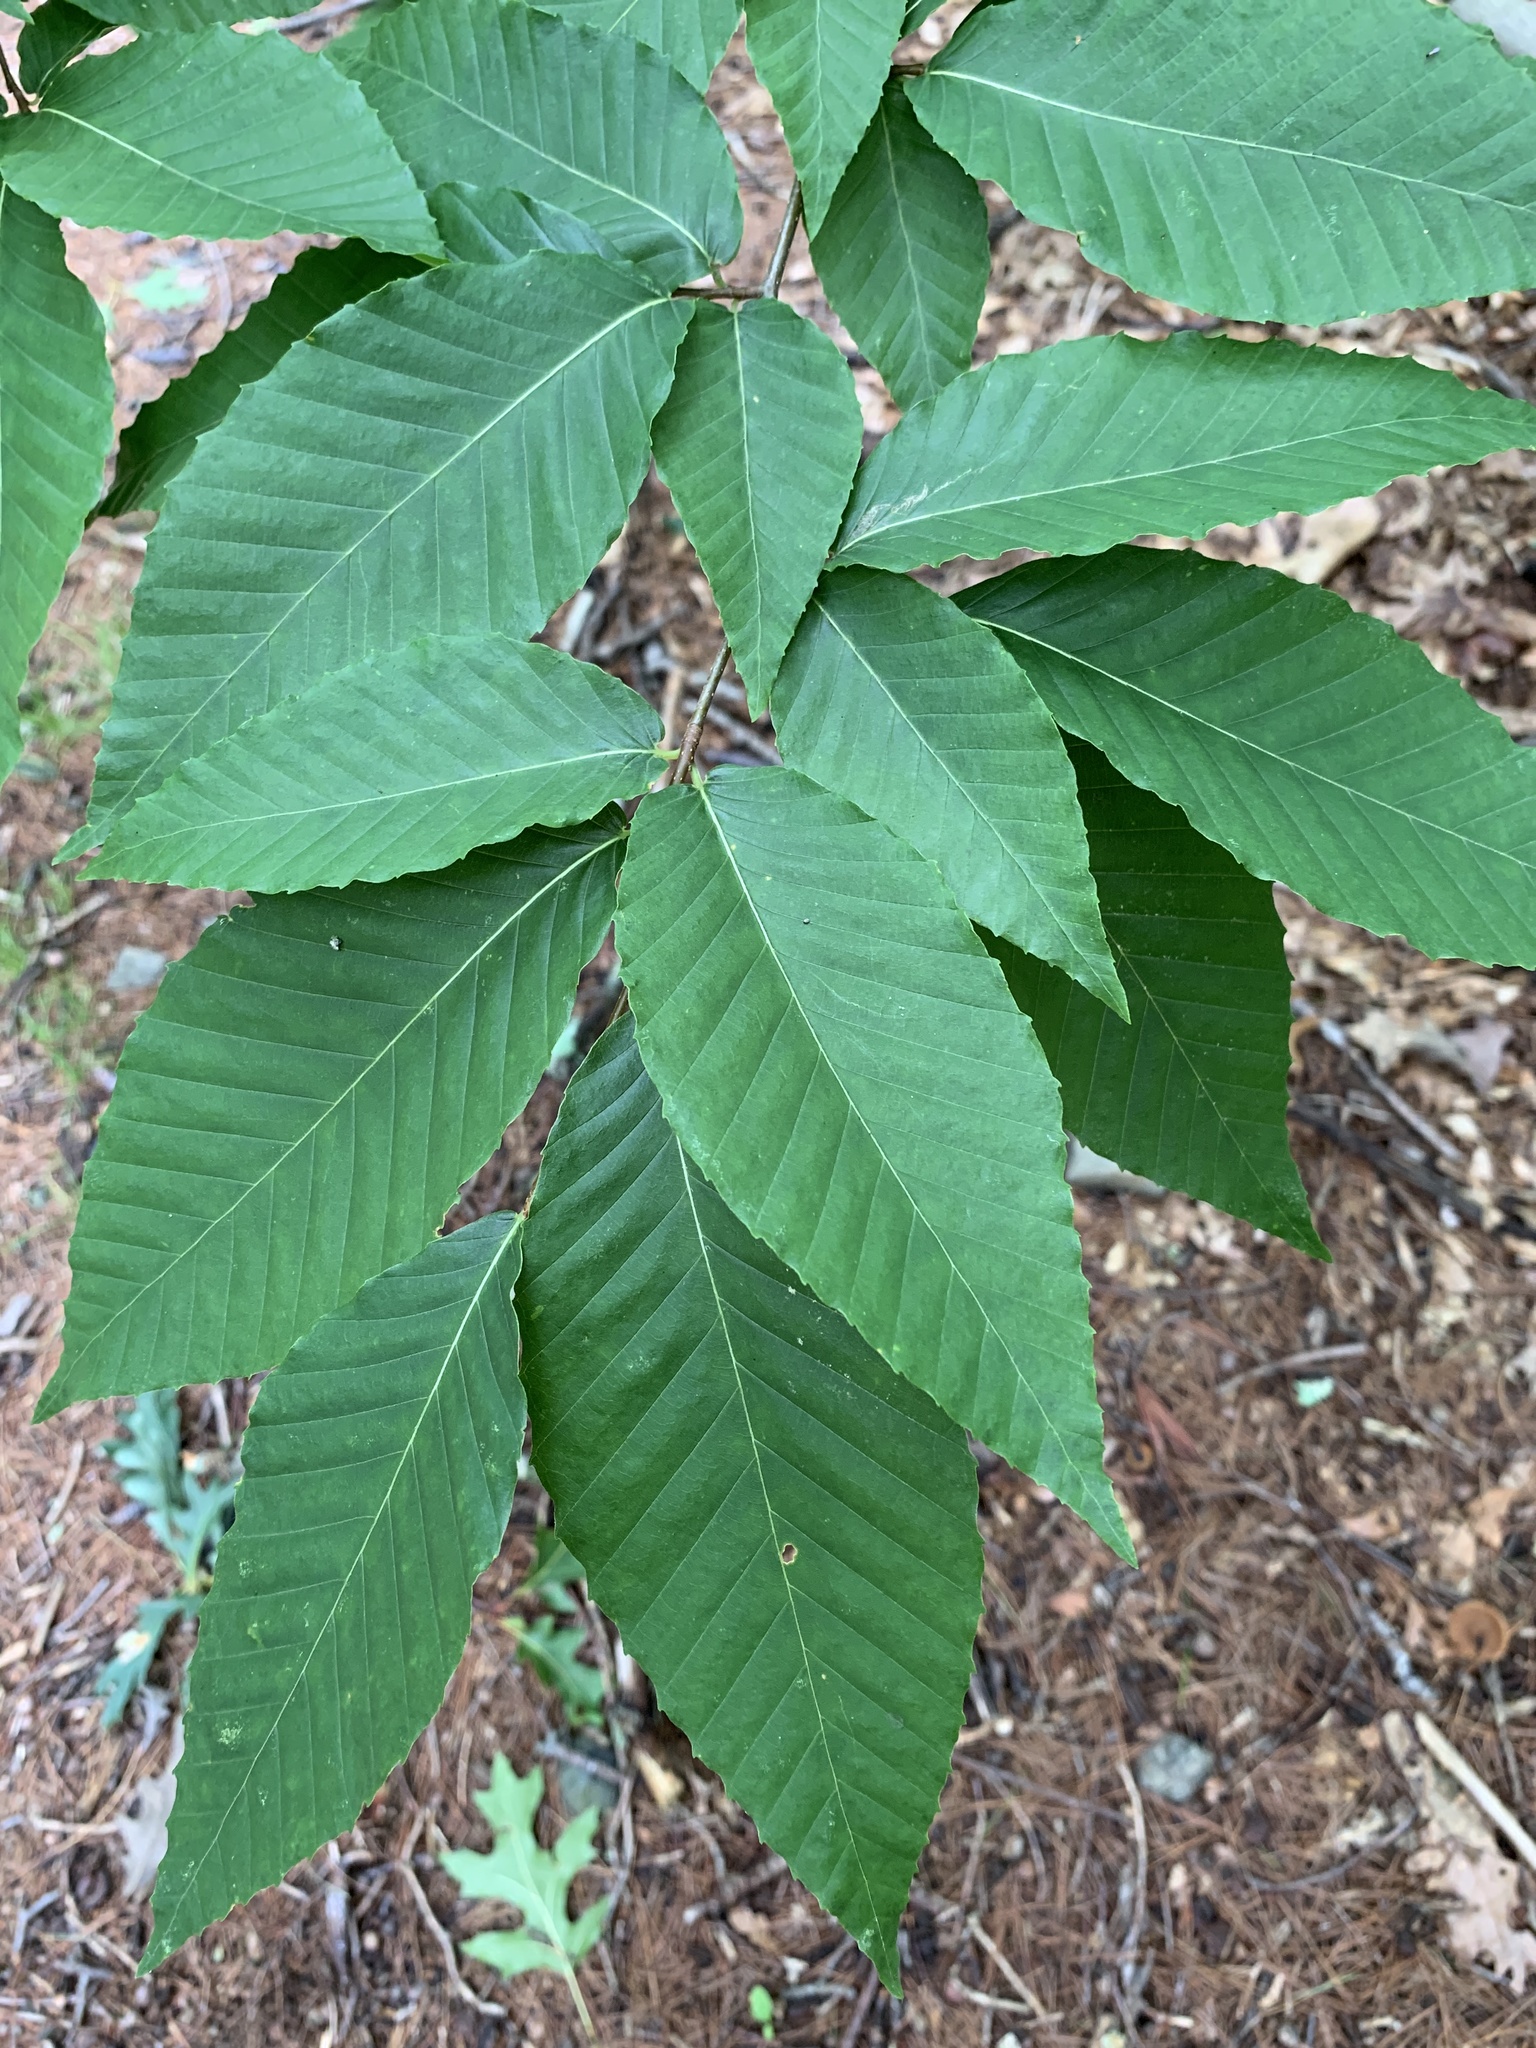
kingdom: Plantae
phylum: Tracheophyta
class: Magnoliopsida
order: Fagales
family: Fagaceae
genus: Fagus
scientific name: Fagus grandifolia
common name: American beech
